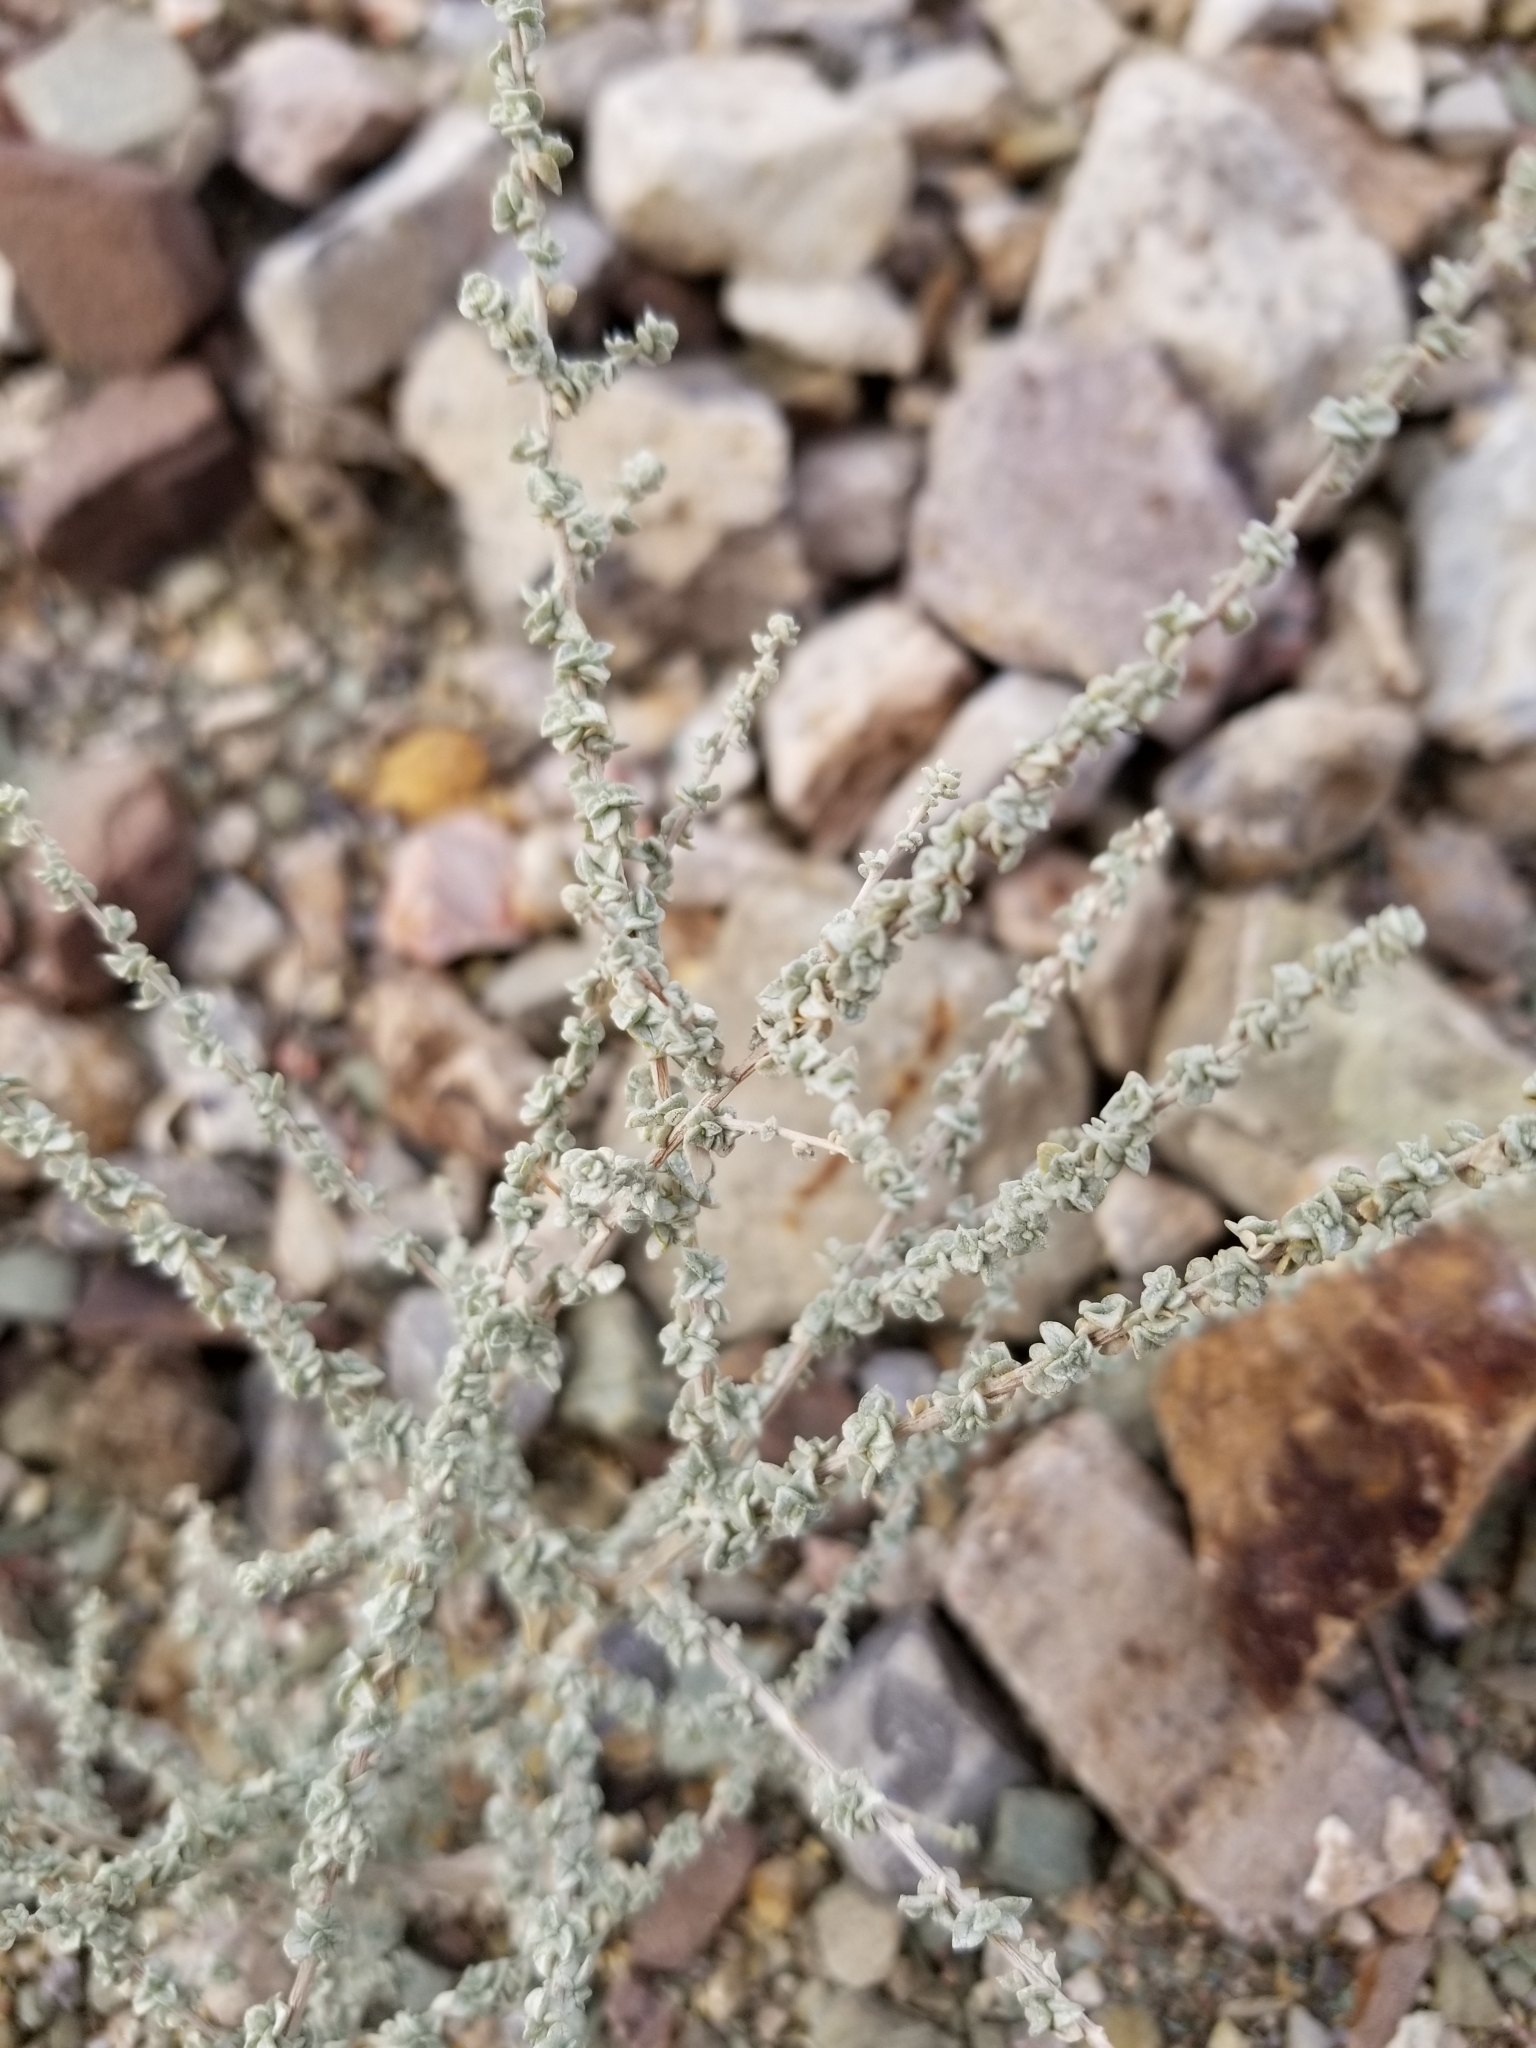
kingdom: Plantae
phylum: Tracheophyta
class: Magnoliopsida
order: Caryophyllales
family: Amaranthaceae
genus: Atriplex
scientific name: Atriplex polycarpa
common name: Desert saltbush
